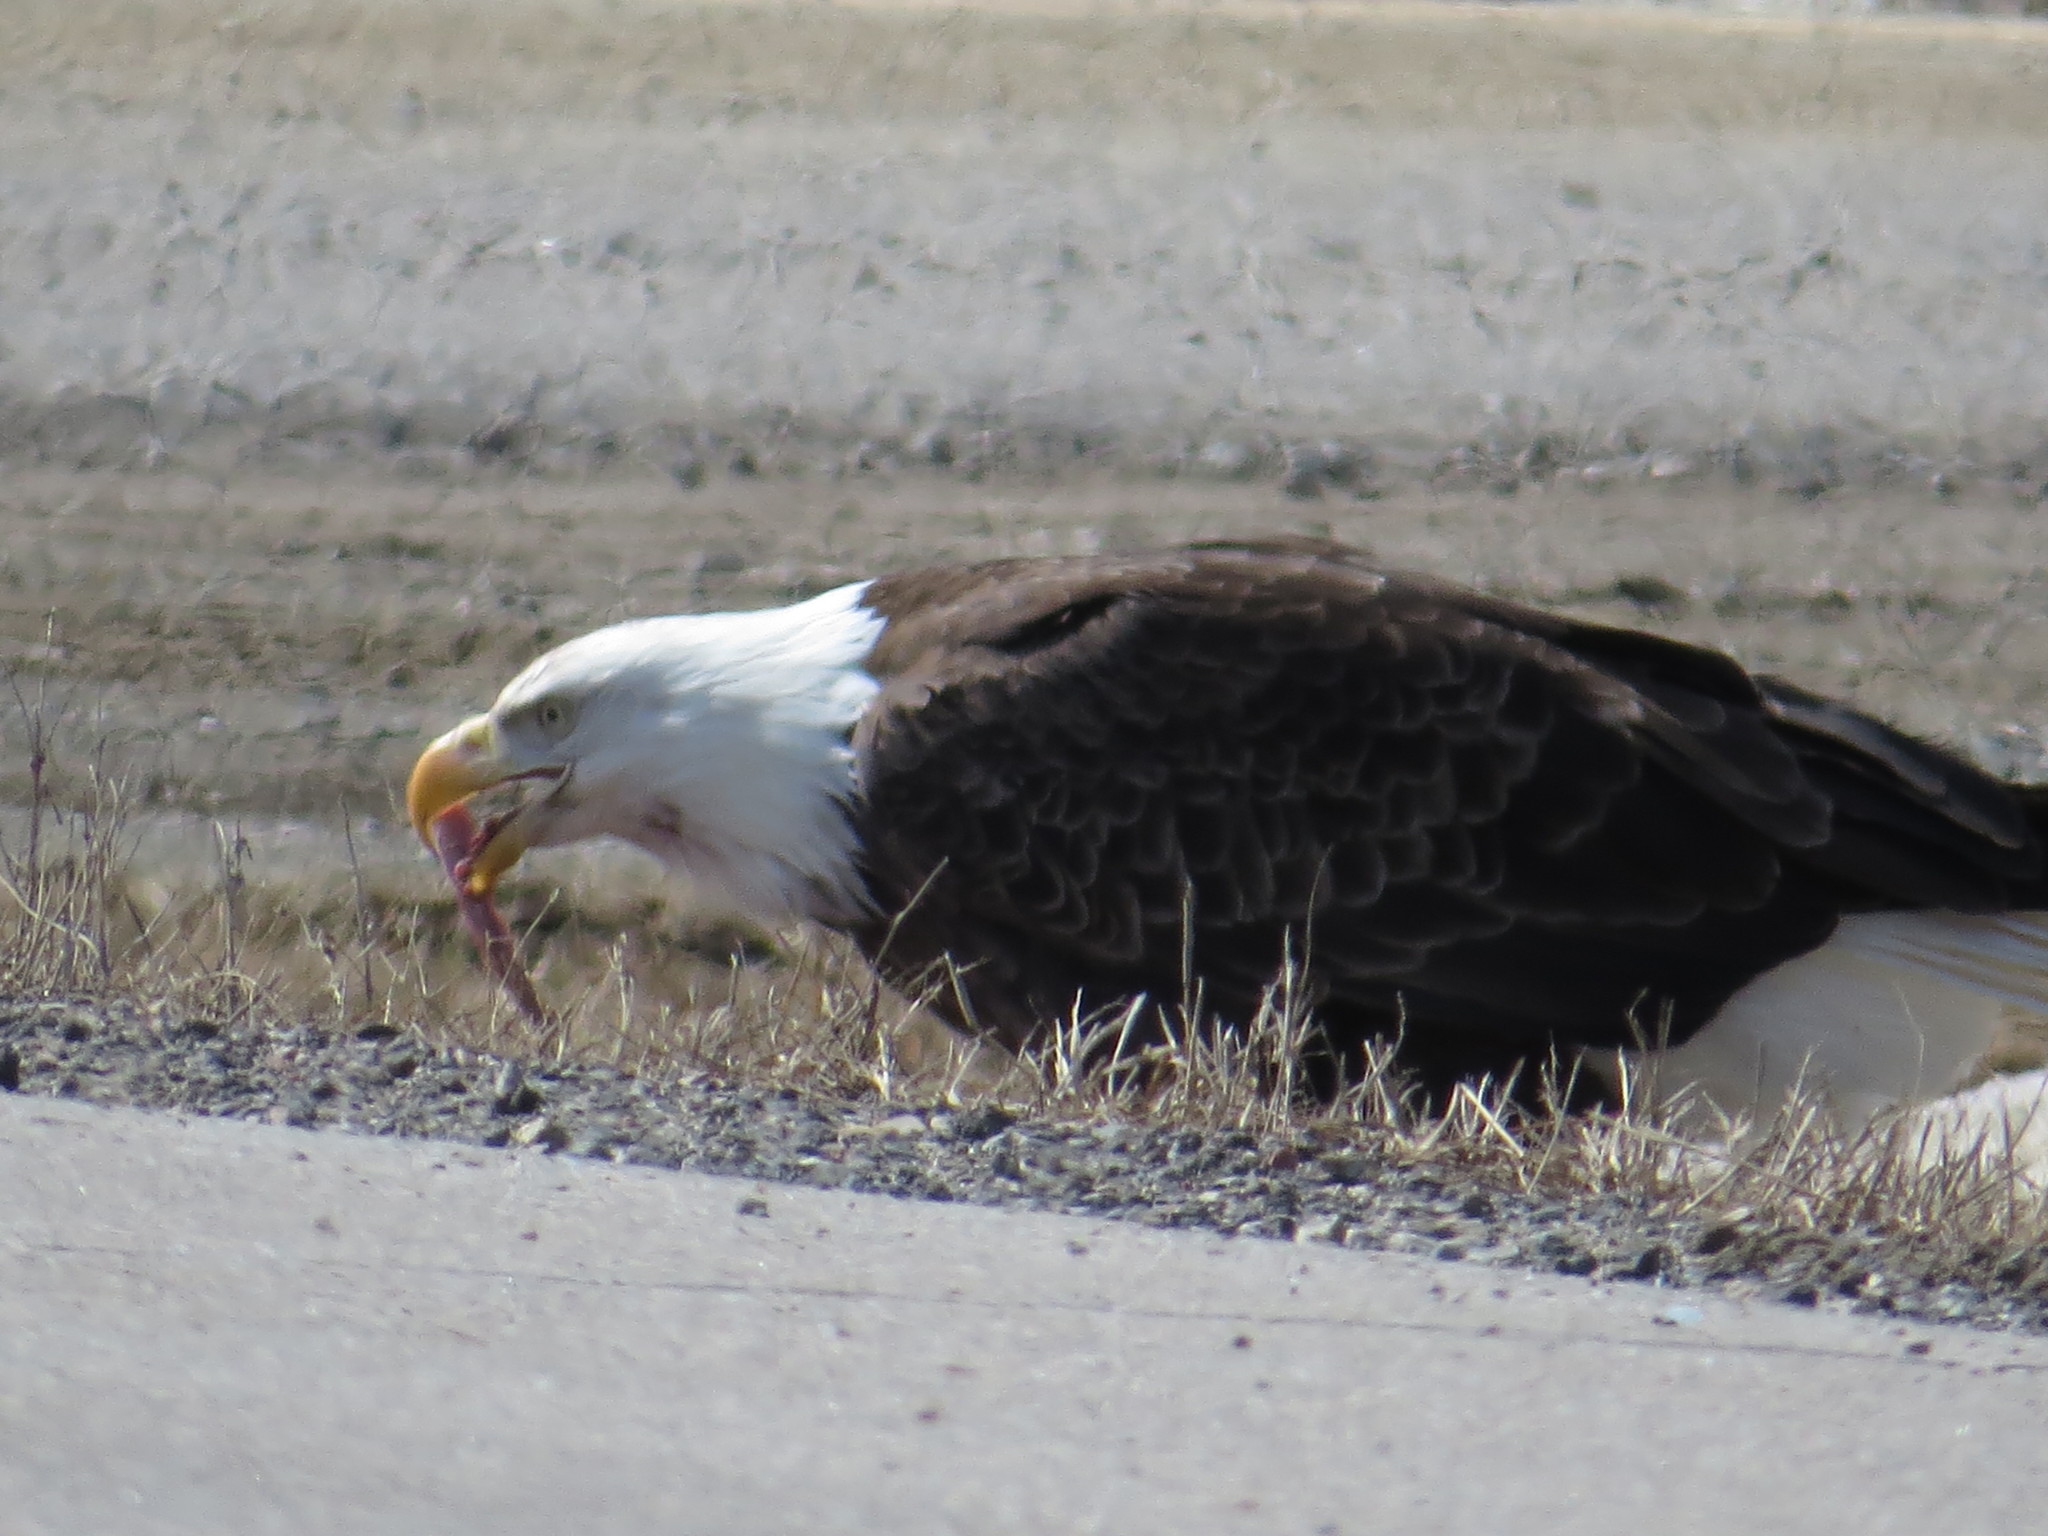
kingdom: Animalia
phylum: Chordata
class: Aves
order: Accipitriformes
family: Accipitridae
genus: Haliaeetus
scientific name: Haliaeetus leucocephalus
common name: Bald eagle
